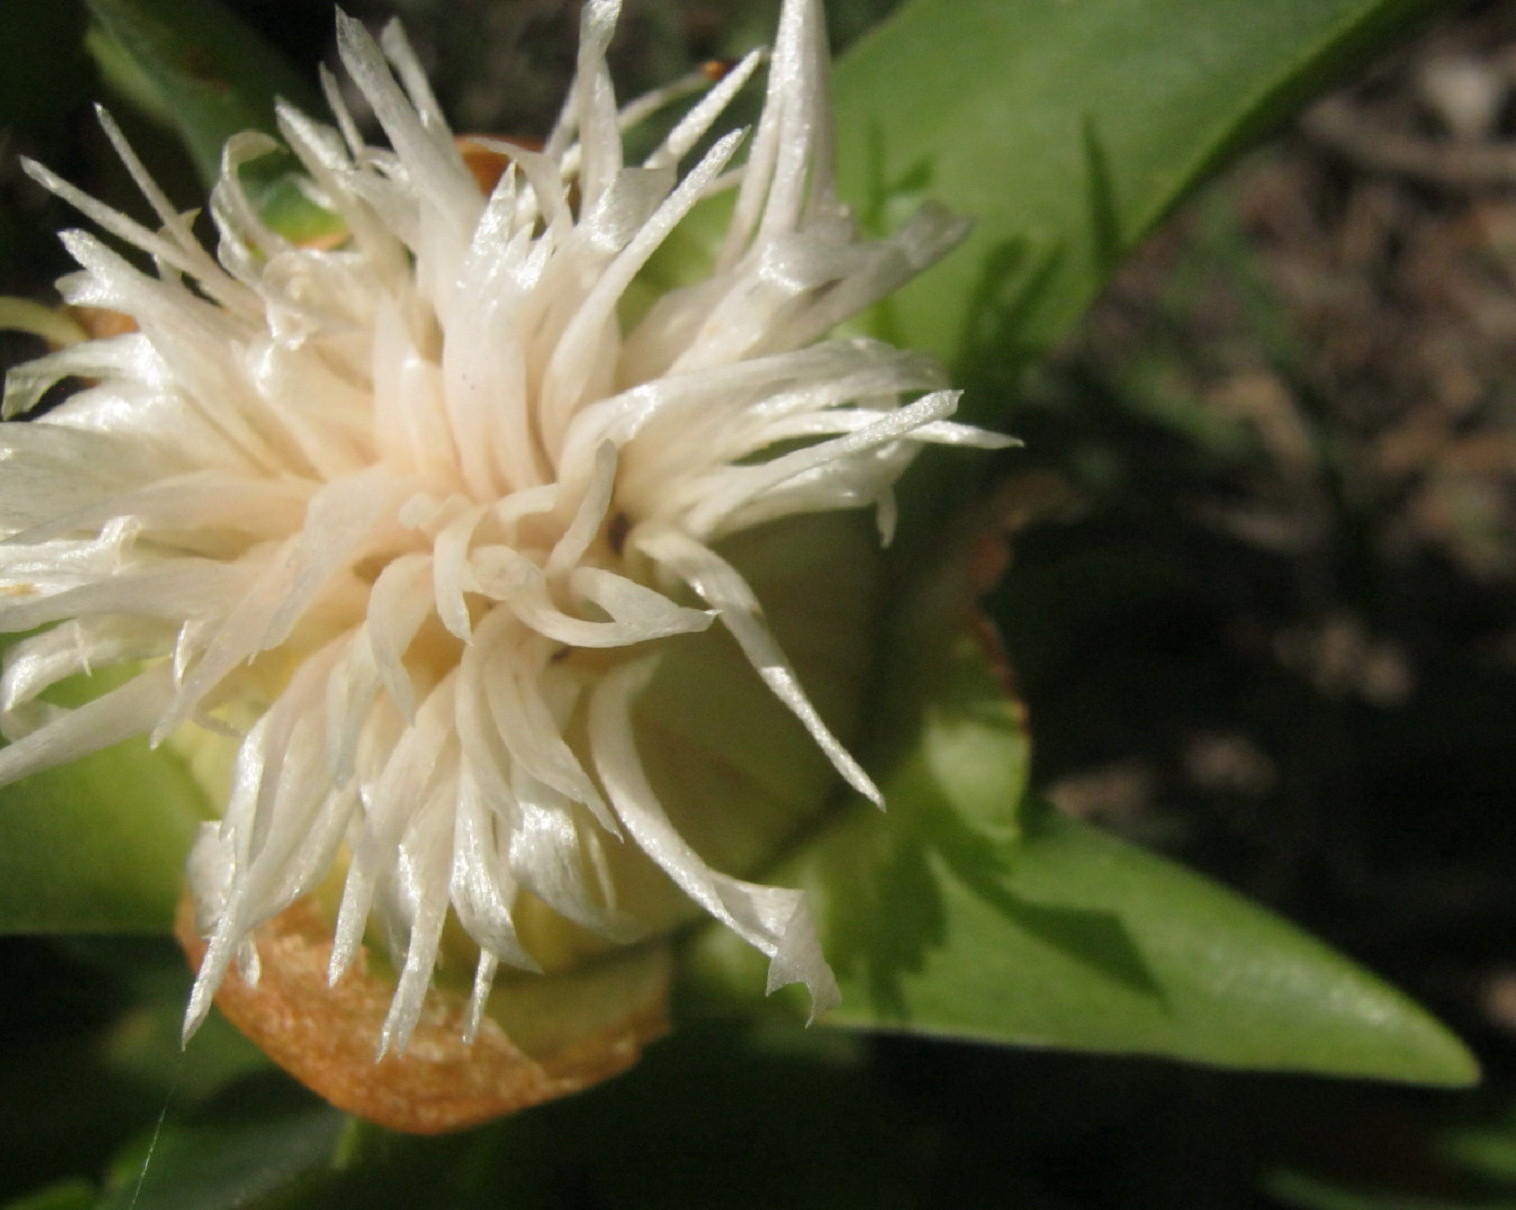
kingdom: Plantae
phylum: Tracheophyta
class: Magnoliopsida
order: Caryophyllales
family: Aizoaceae
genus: Carpobrotus
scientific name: Carpobrotus edulis
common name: Hottentot-fig
